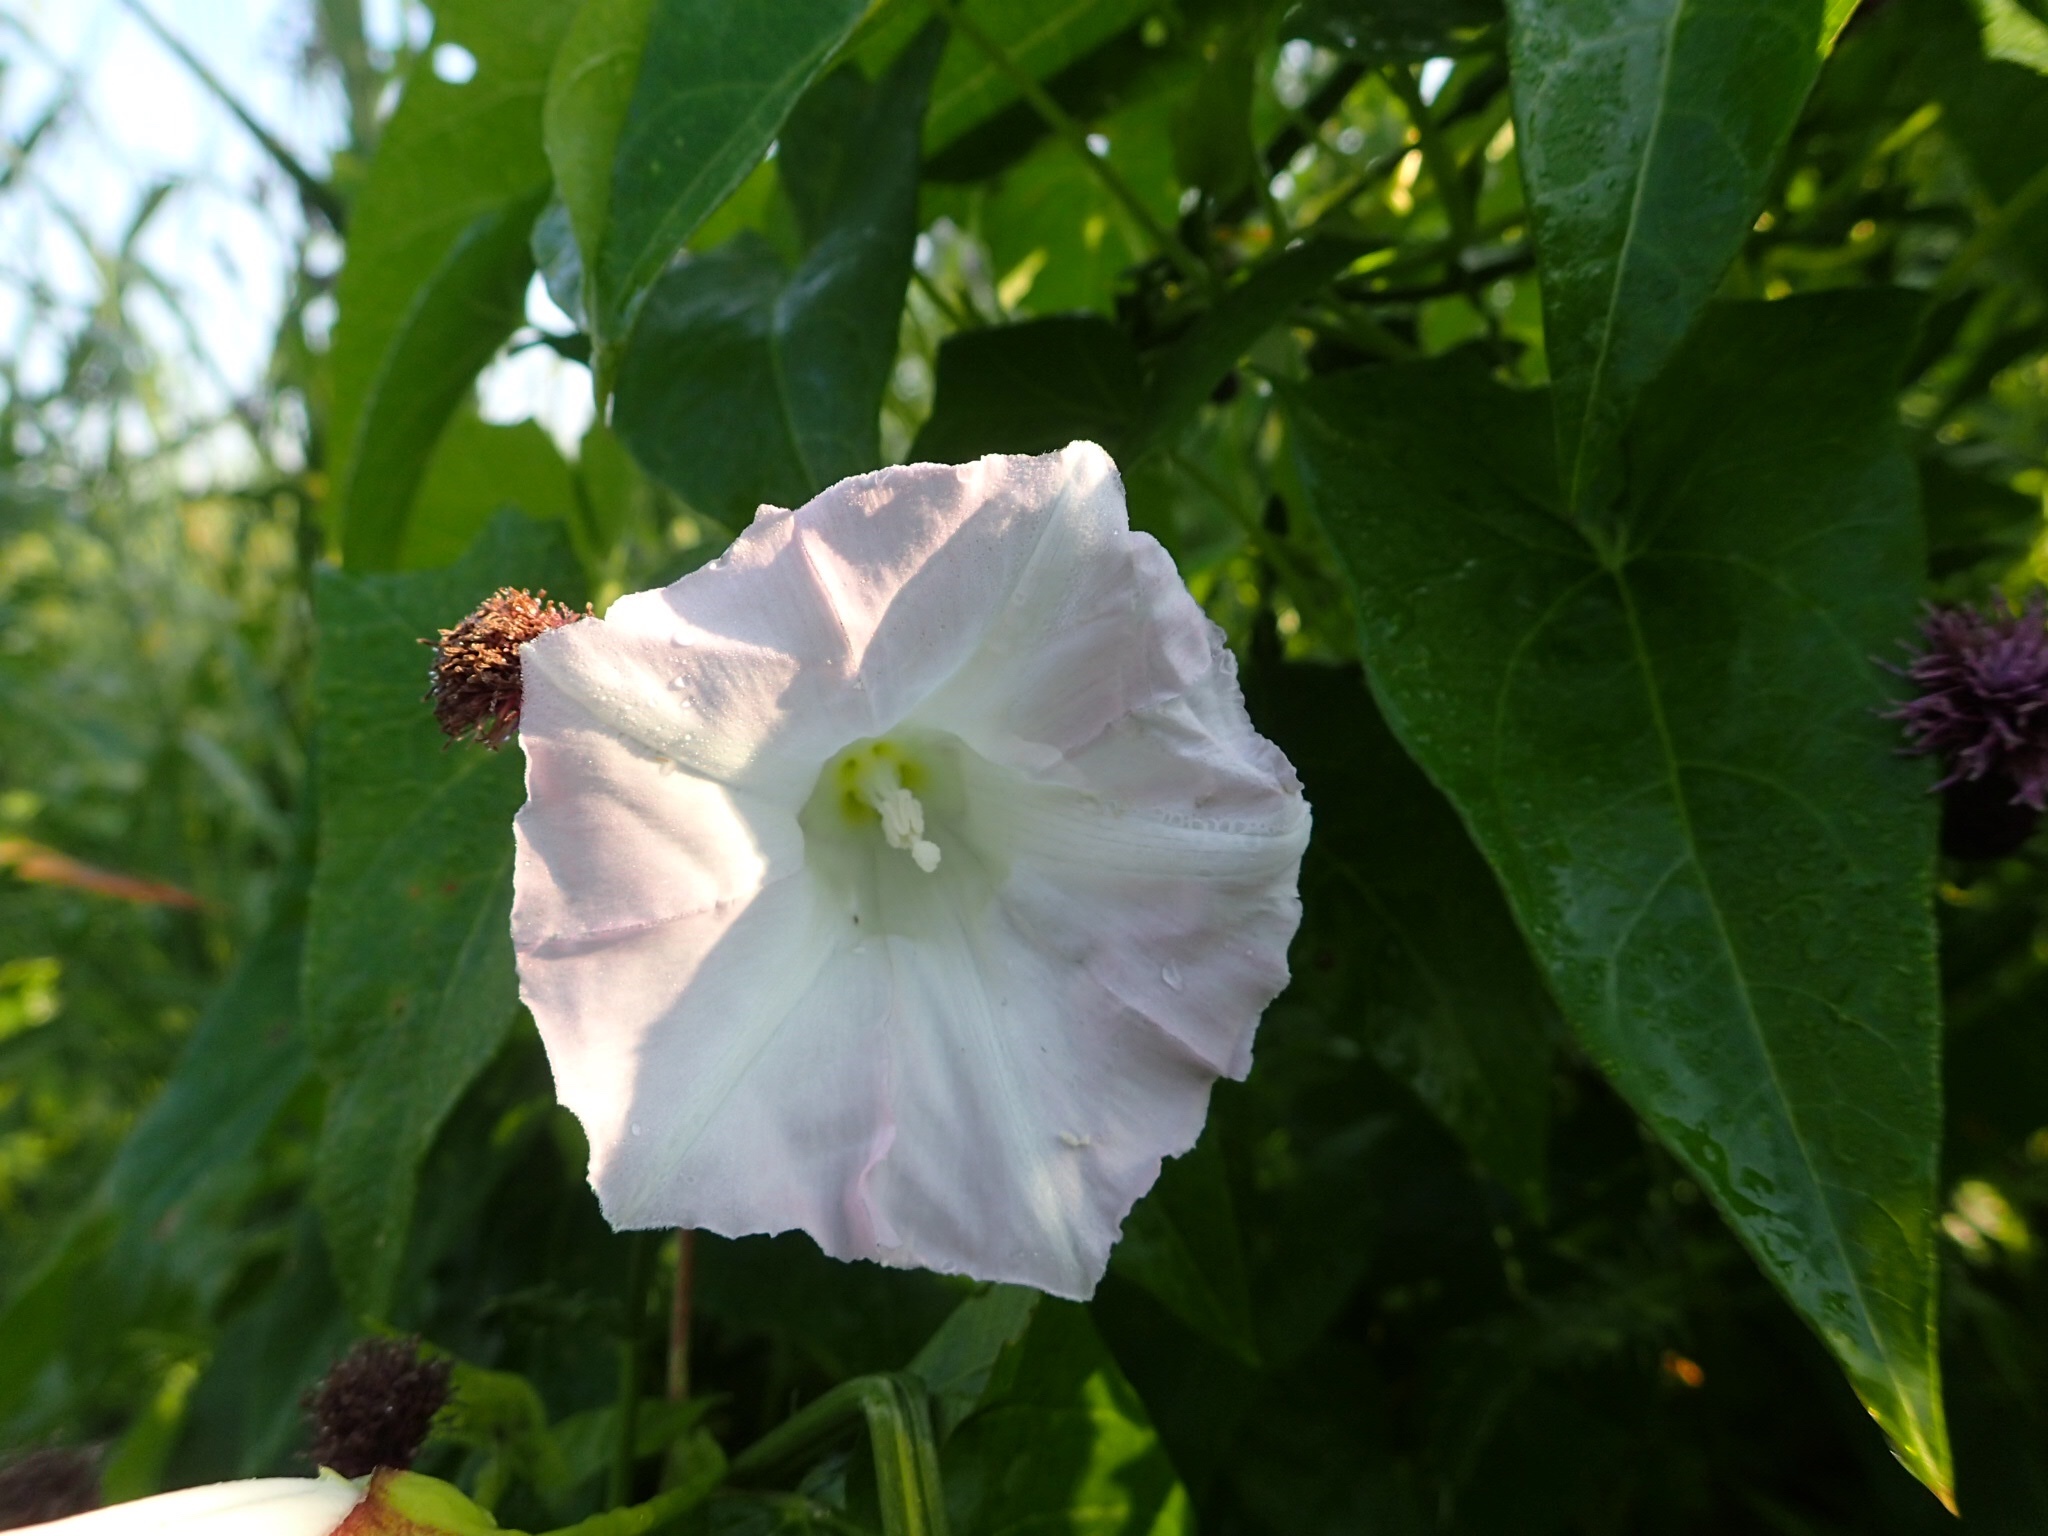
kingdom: Plantae
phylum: Tracheophyta
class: Magnoliopsida
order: Solanales
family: Convolvulaceae
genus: Calystegia
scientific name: Calystegia sepium
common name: Hedge bindweed
